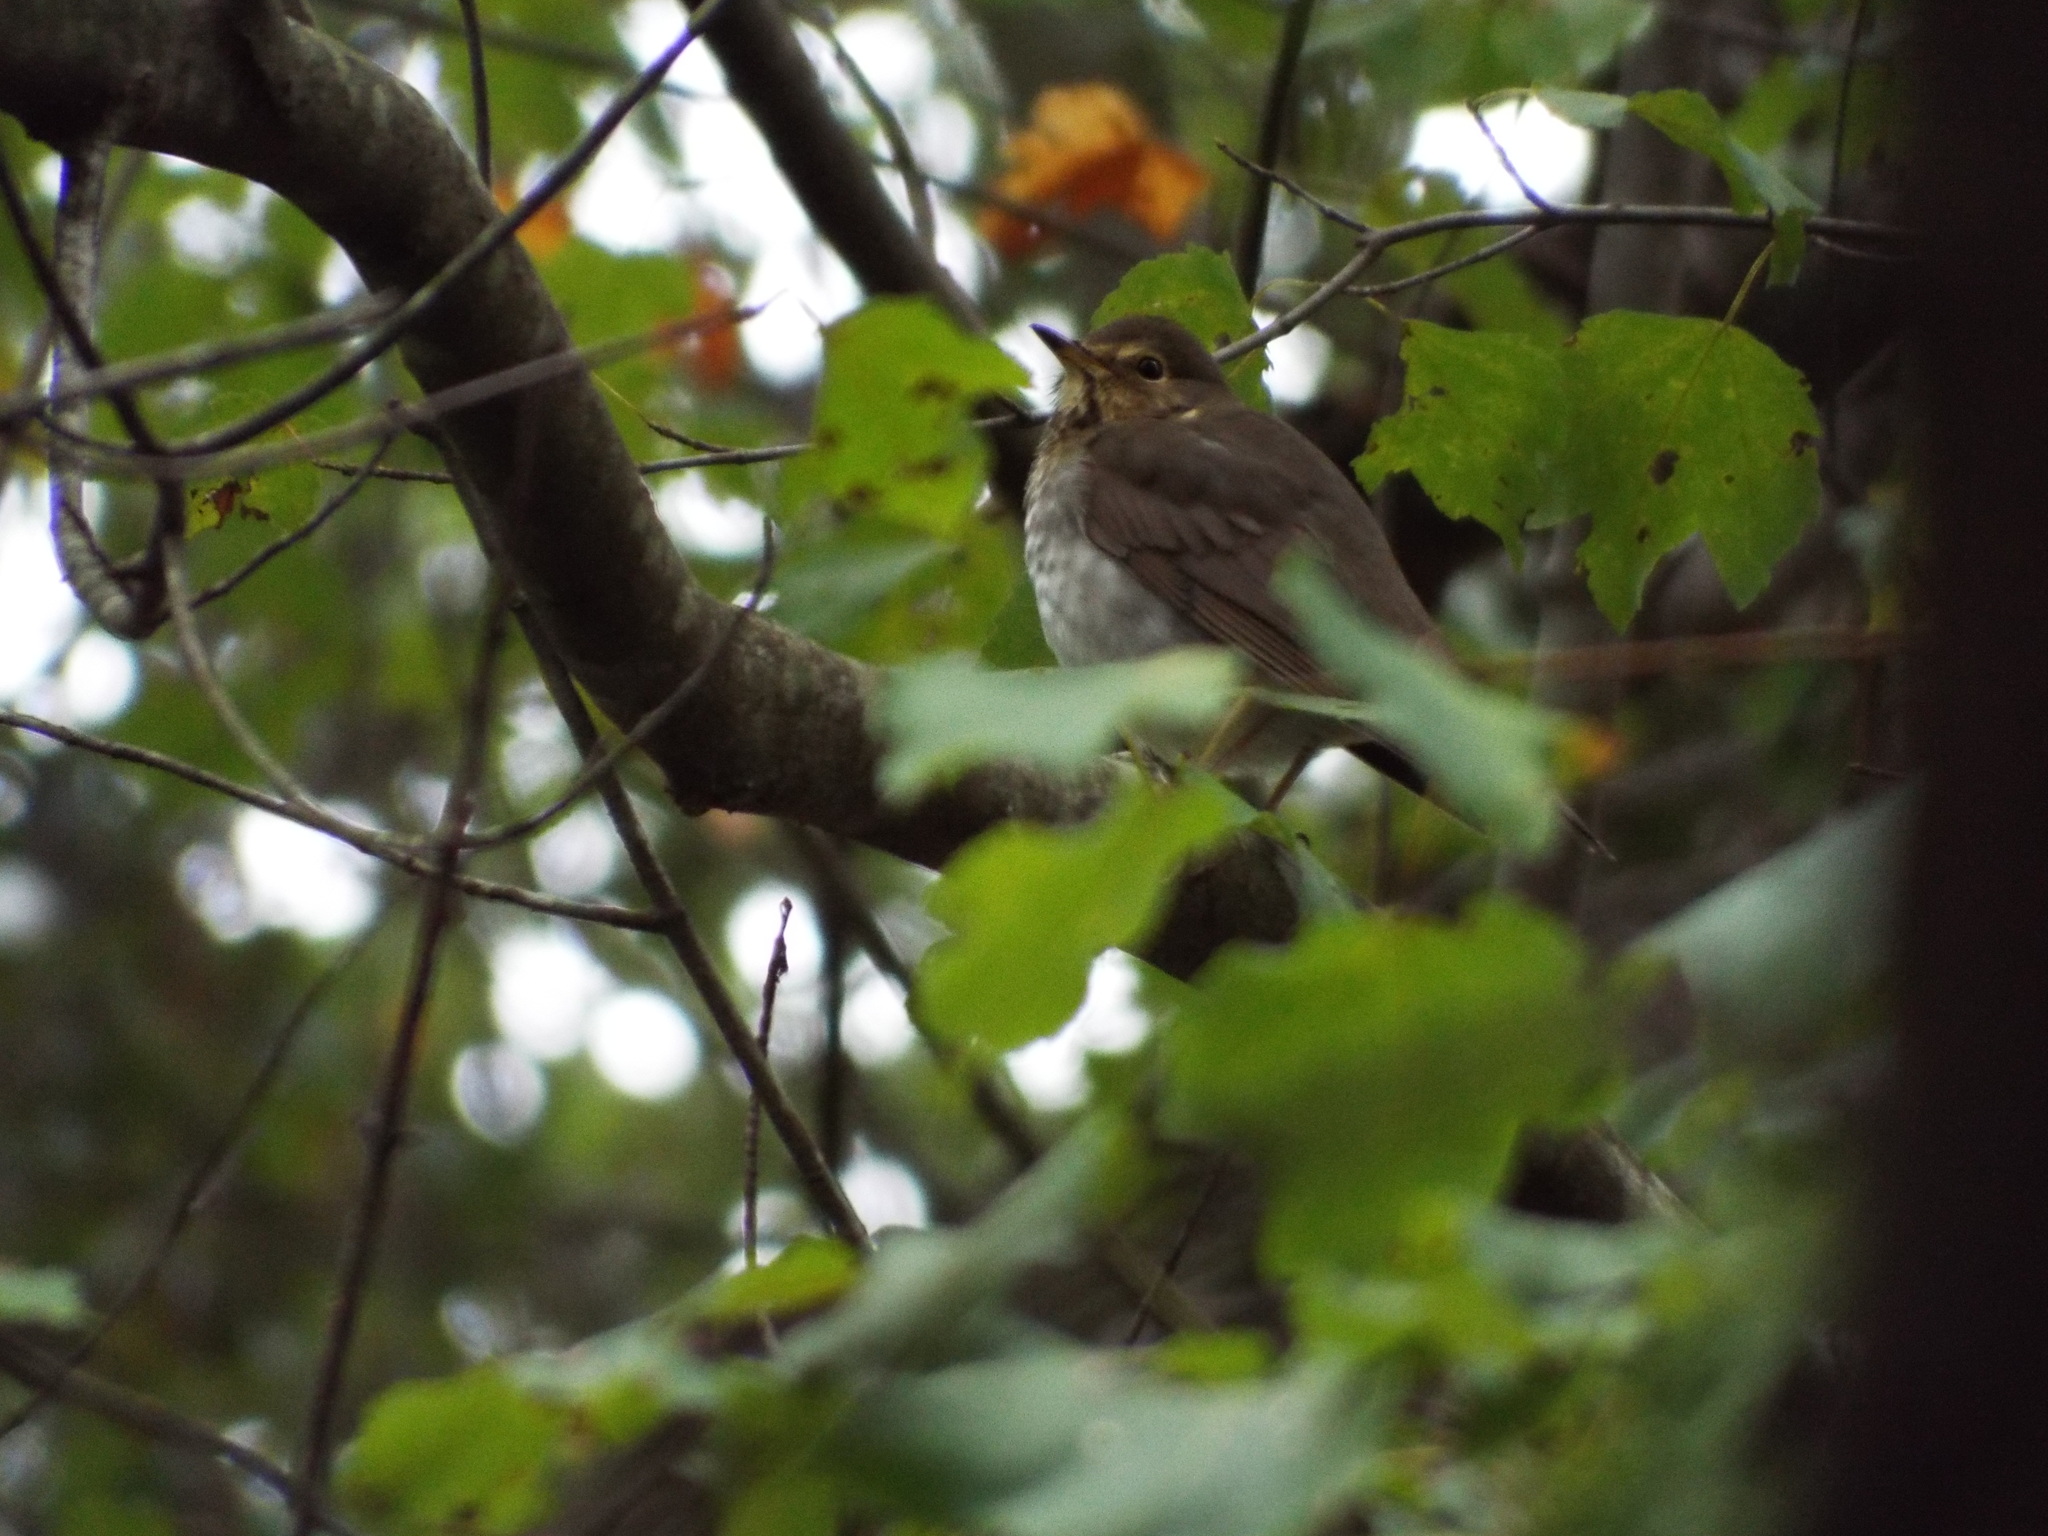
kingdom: Animalia
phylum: Chordata
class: Aves
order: Passeriformes
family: Turdidae
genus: Catharus
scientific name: Catharus ustulatus
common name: Swainson's thrush
